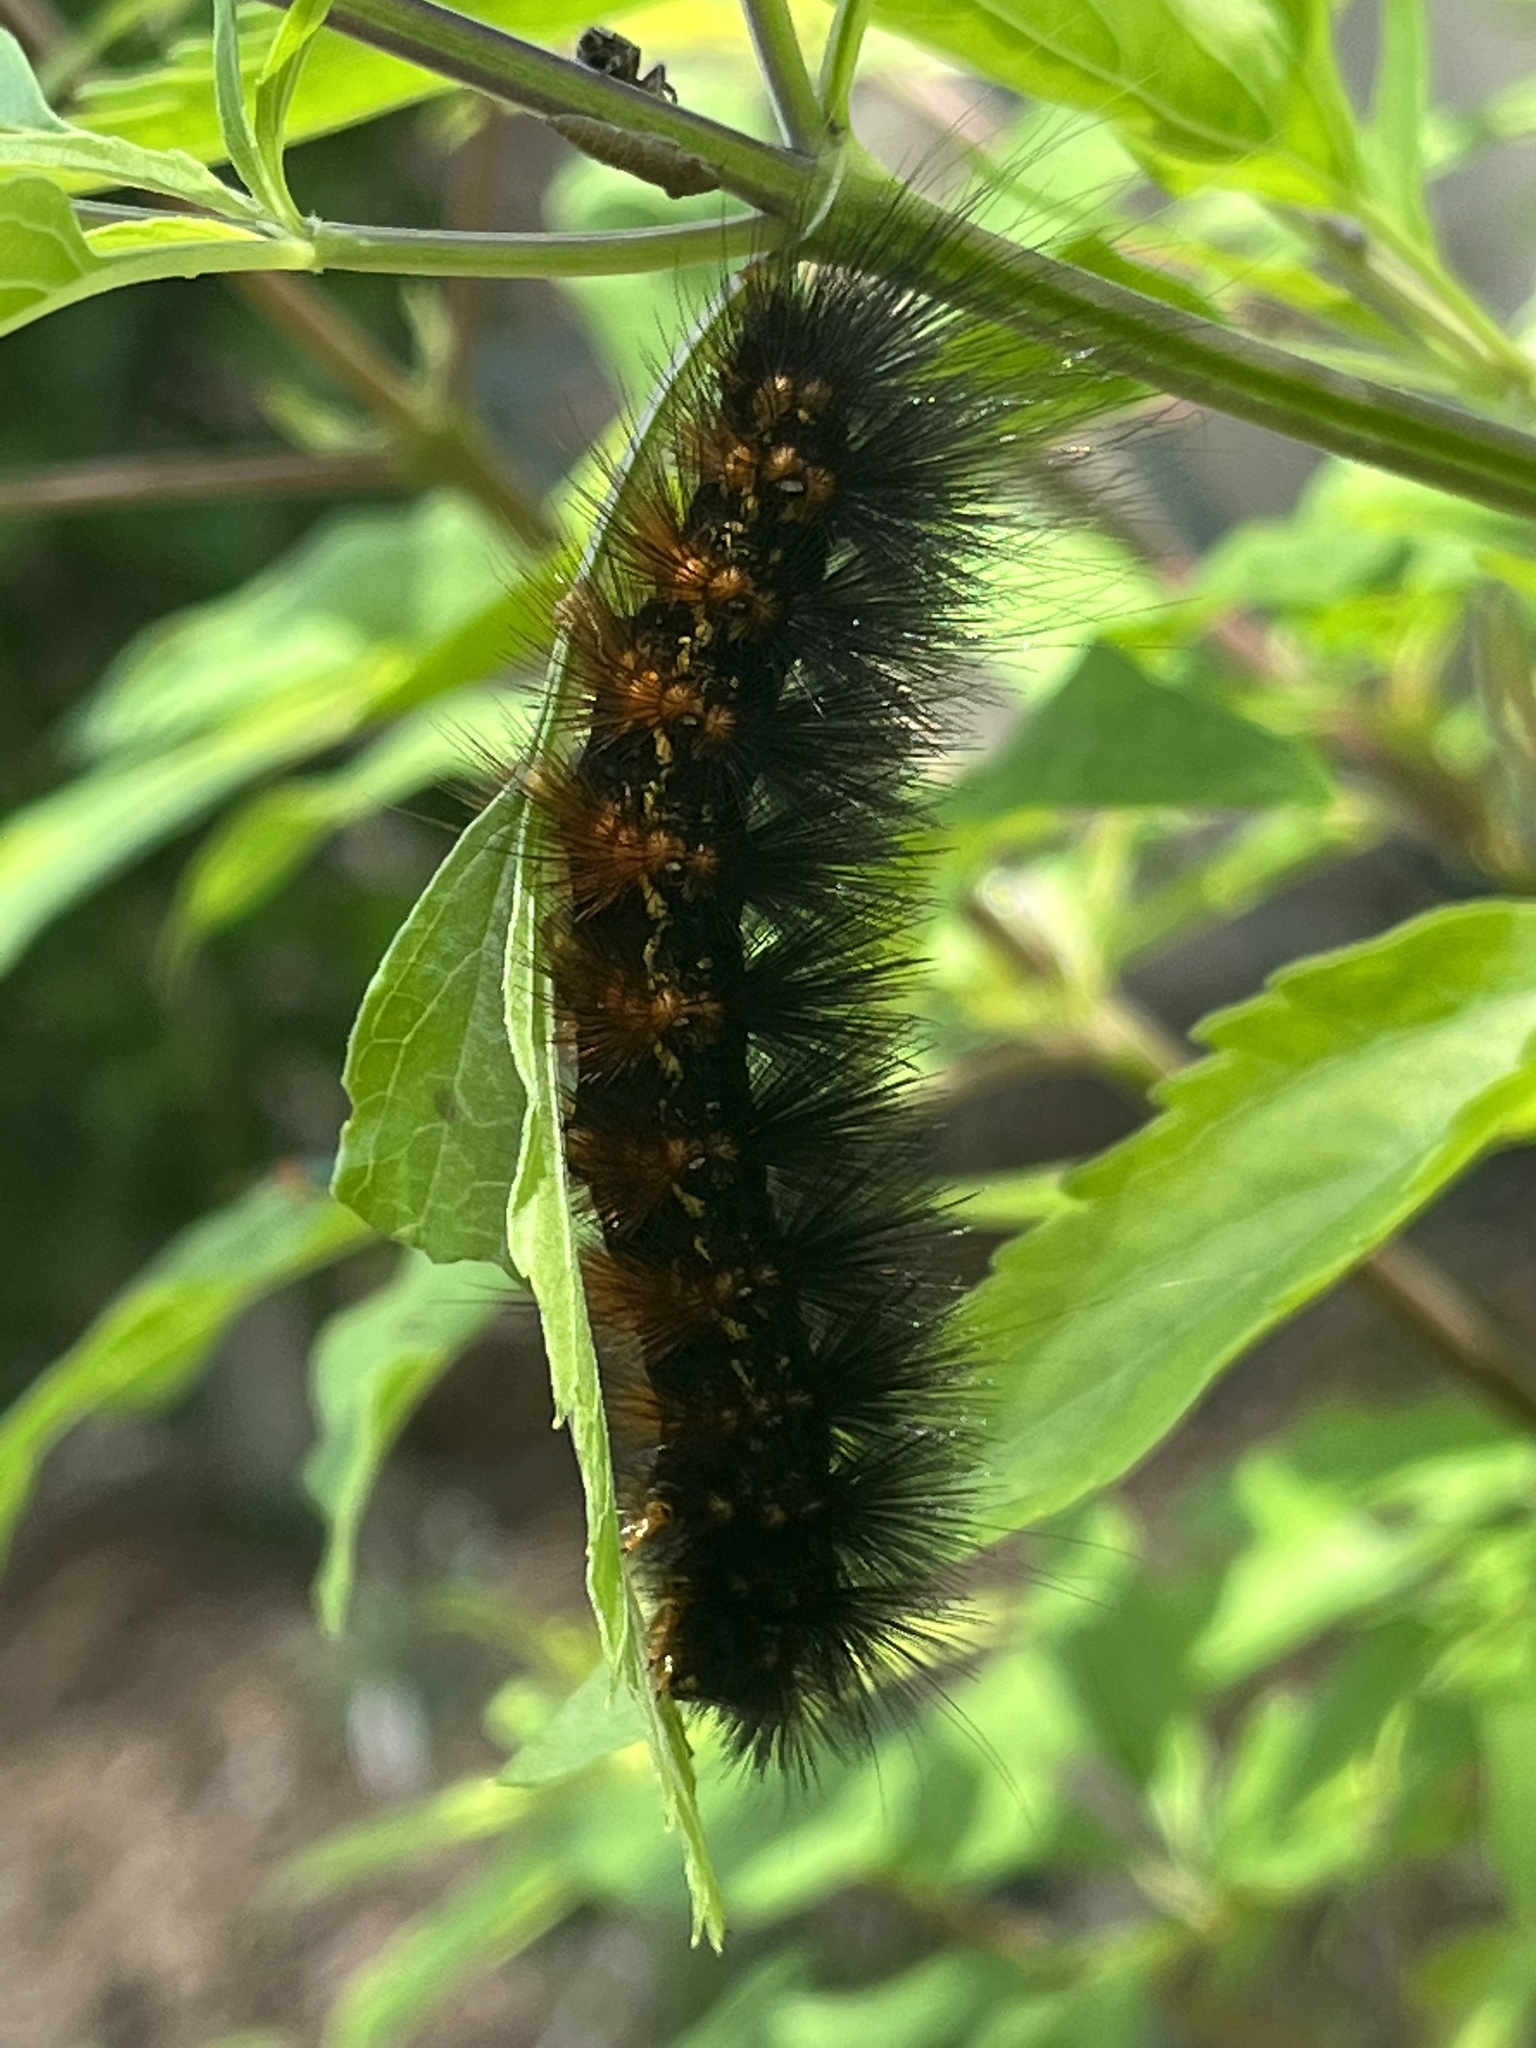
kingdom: Animalia
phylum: Arthropoda
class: Insecta
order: Lepidoptera
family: Erebidae
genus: Estigmene
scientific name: Estigmene acrea
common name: Salt marsh moth
